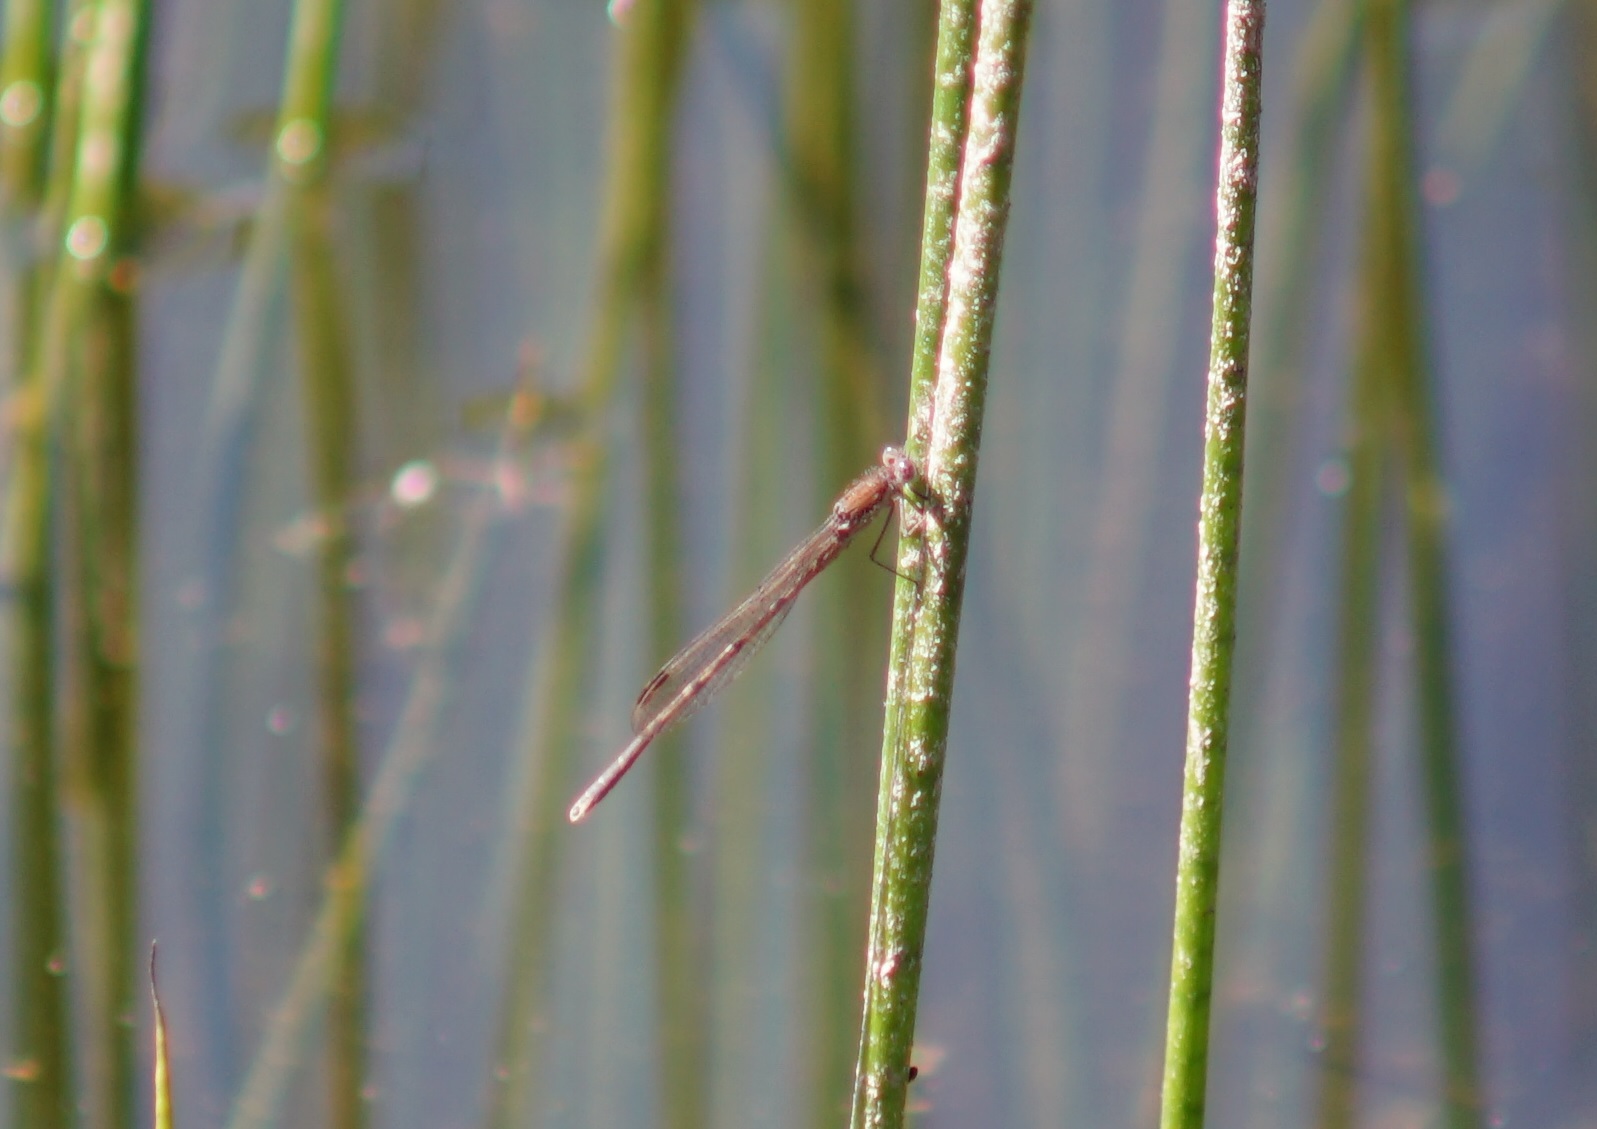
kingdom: Animalia
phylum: Arthropoda
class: Insecta
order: Odonata
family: Lestidae
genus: Sympecma
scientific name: Sympecma fusca
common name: Common winter damsel
